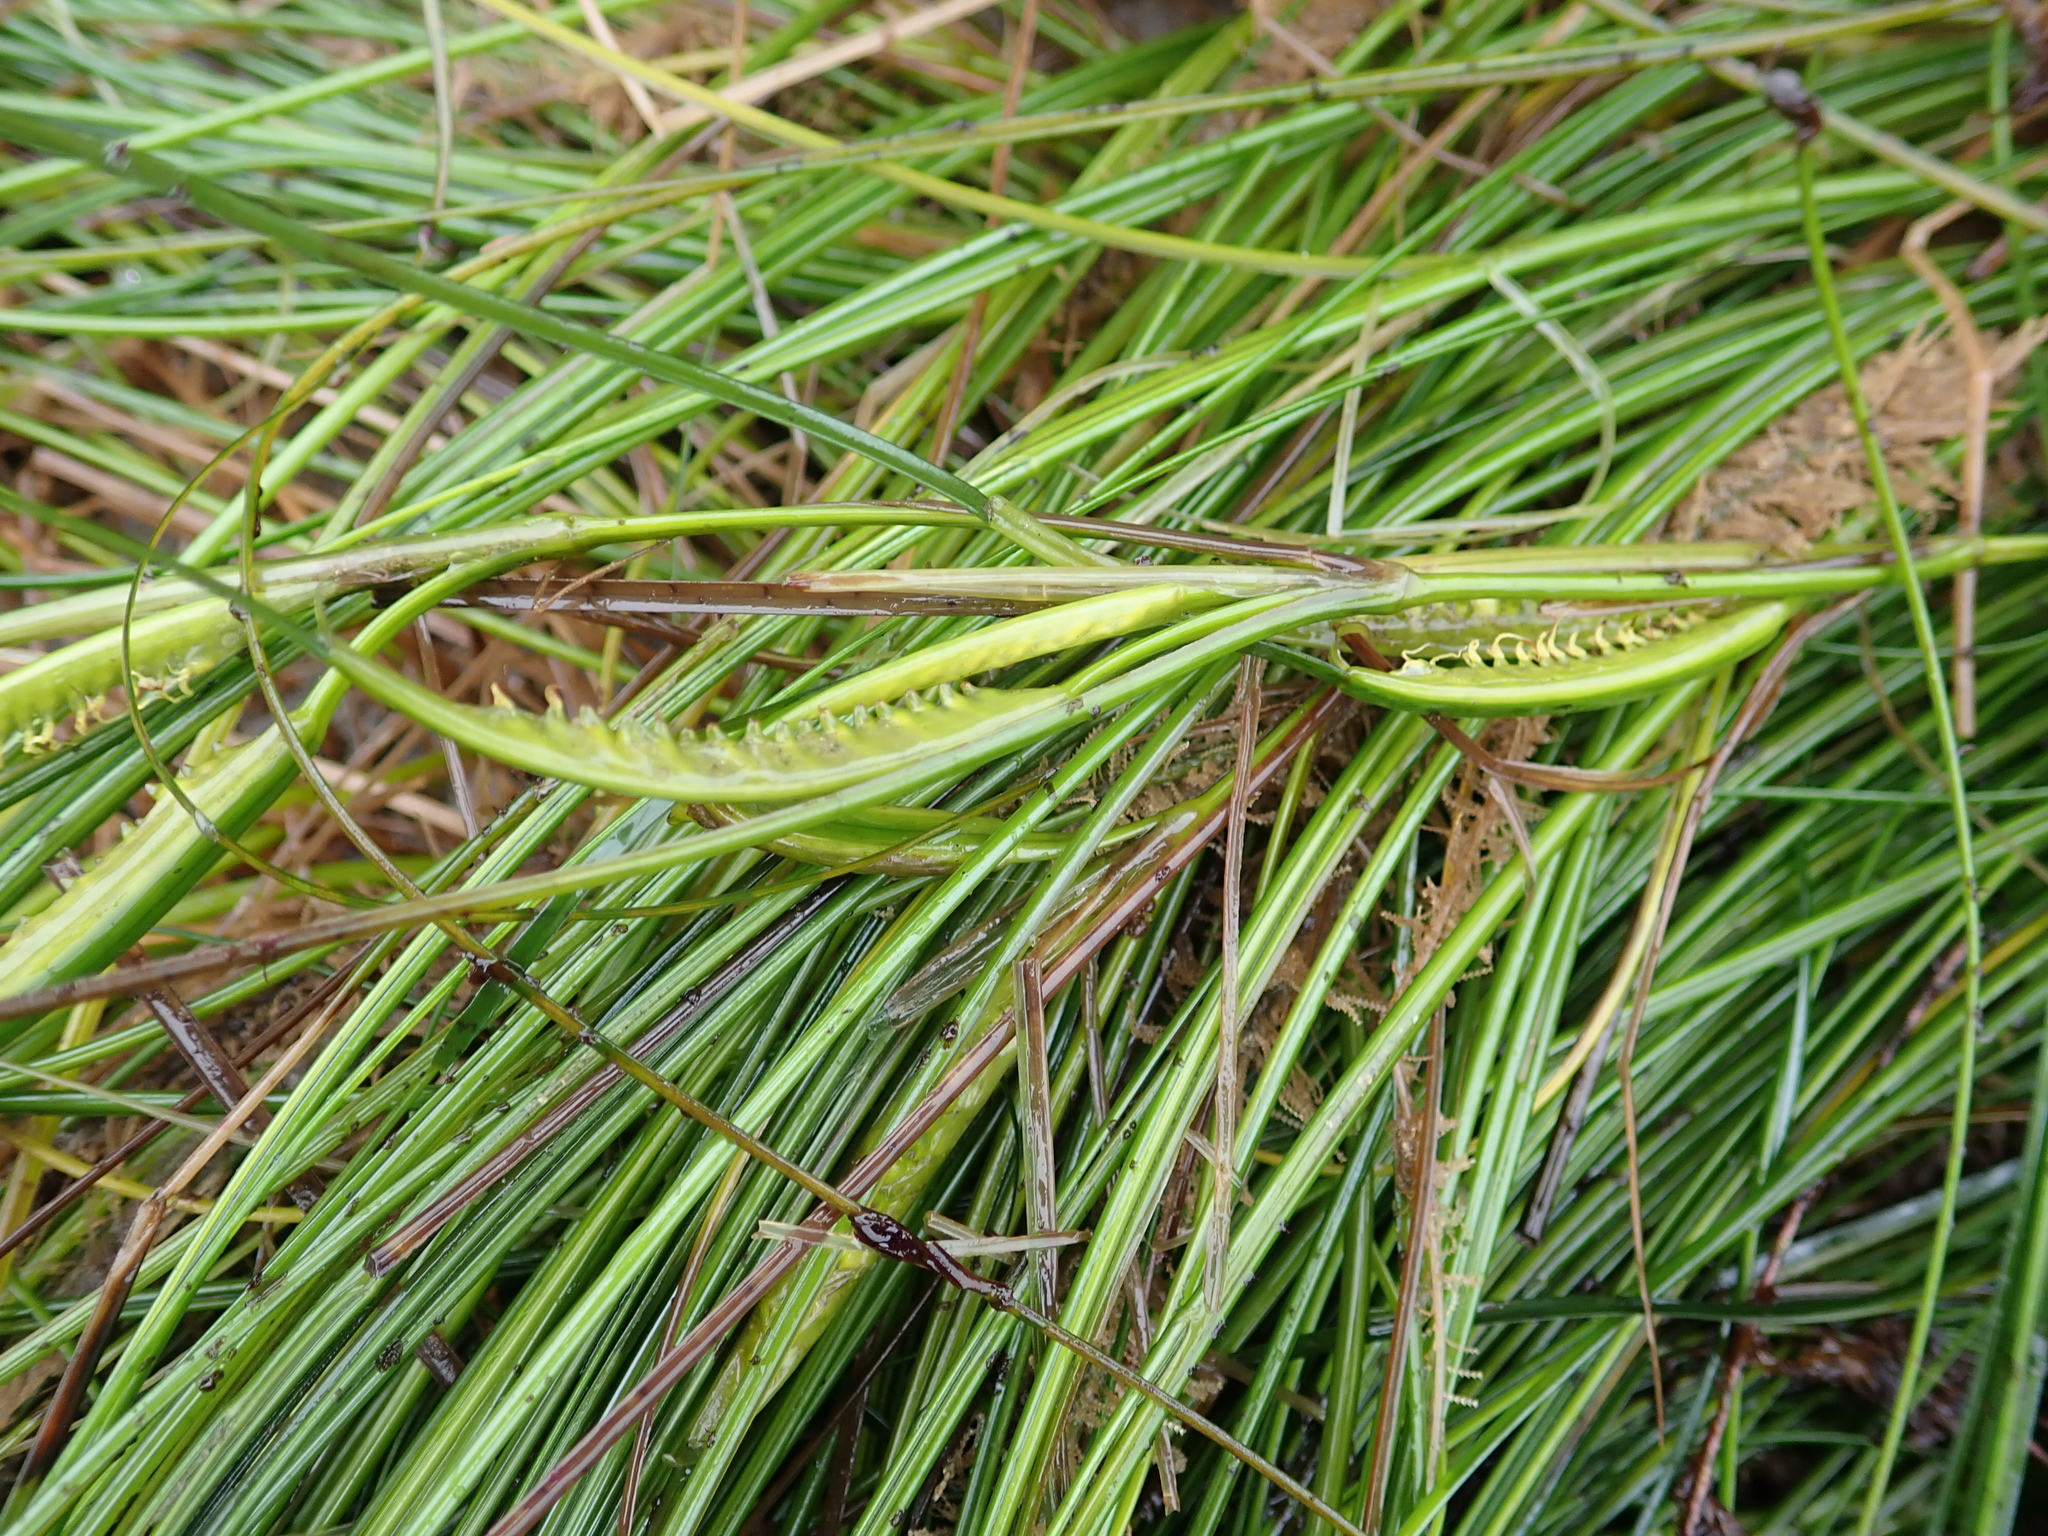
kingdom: Plantae
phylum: Tracheophyta
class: Liliopsida
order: Alismatales
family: Zosteraceae
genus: Phyllospadix
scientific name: Phyllospadix torreyi
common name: Surfgrass
